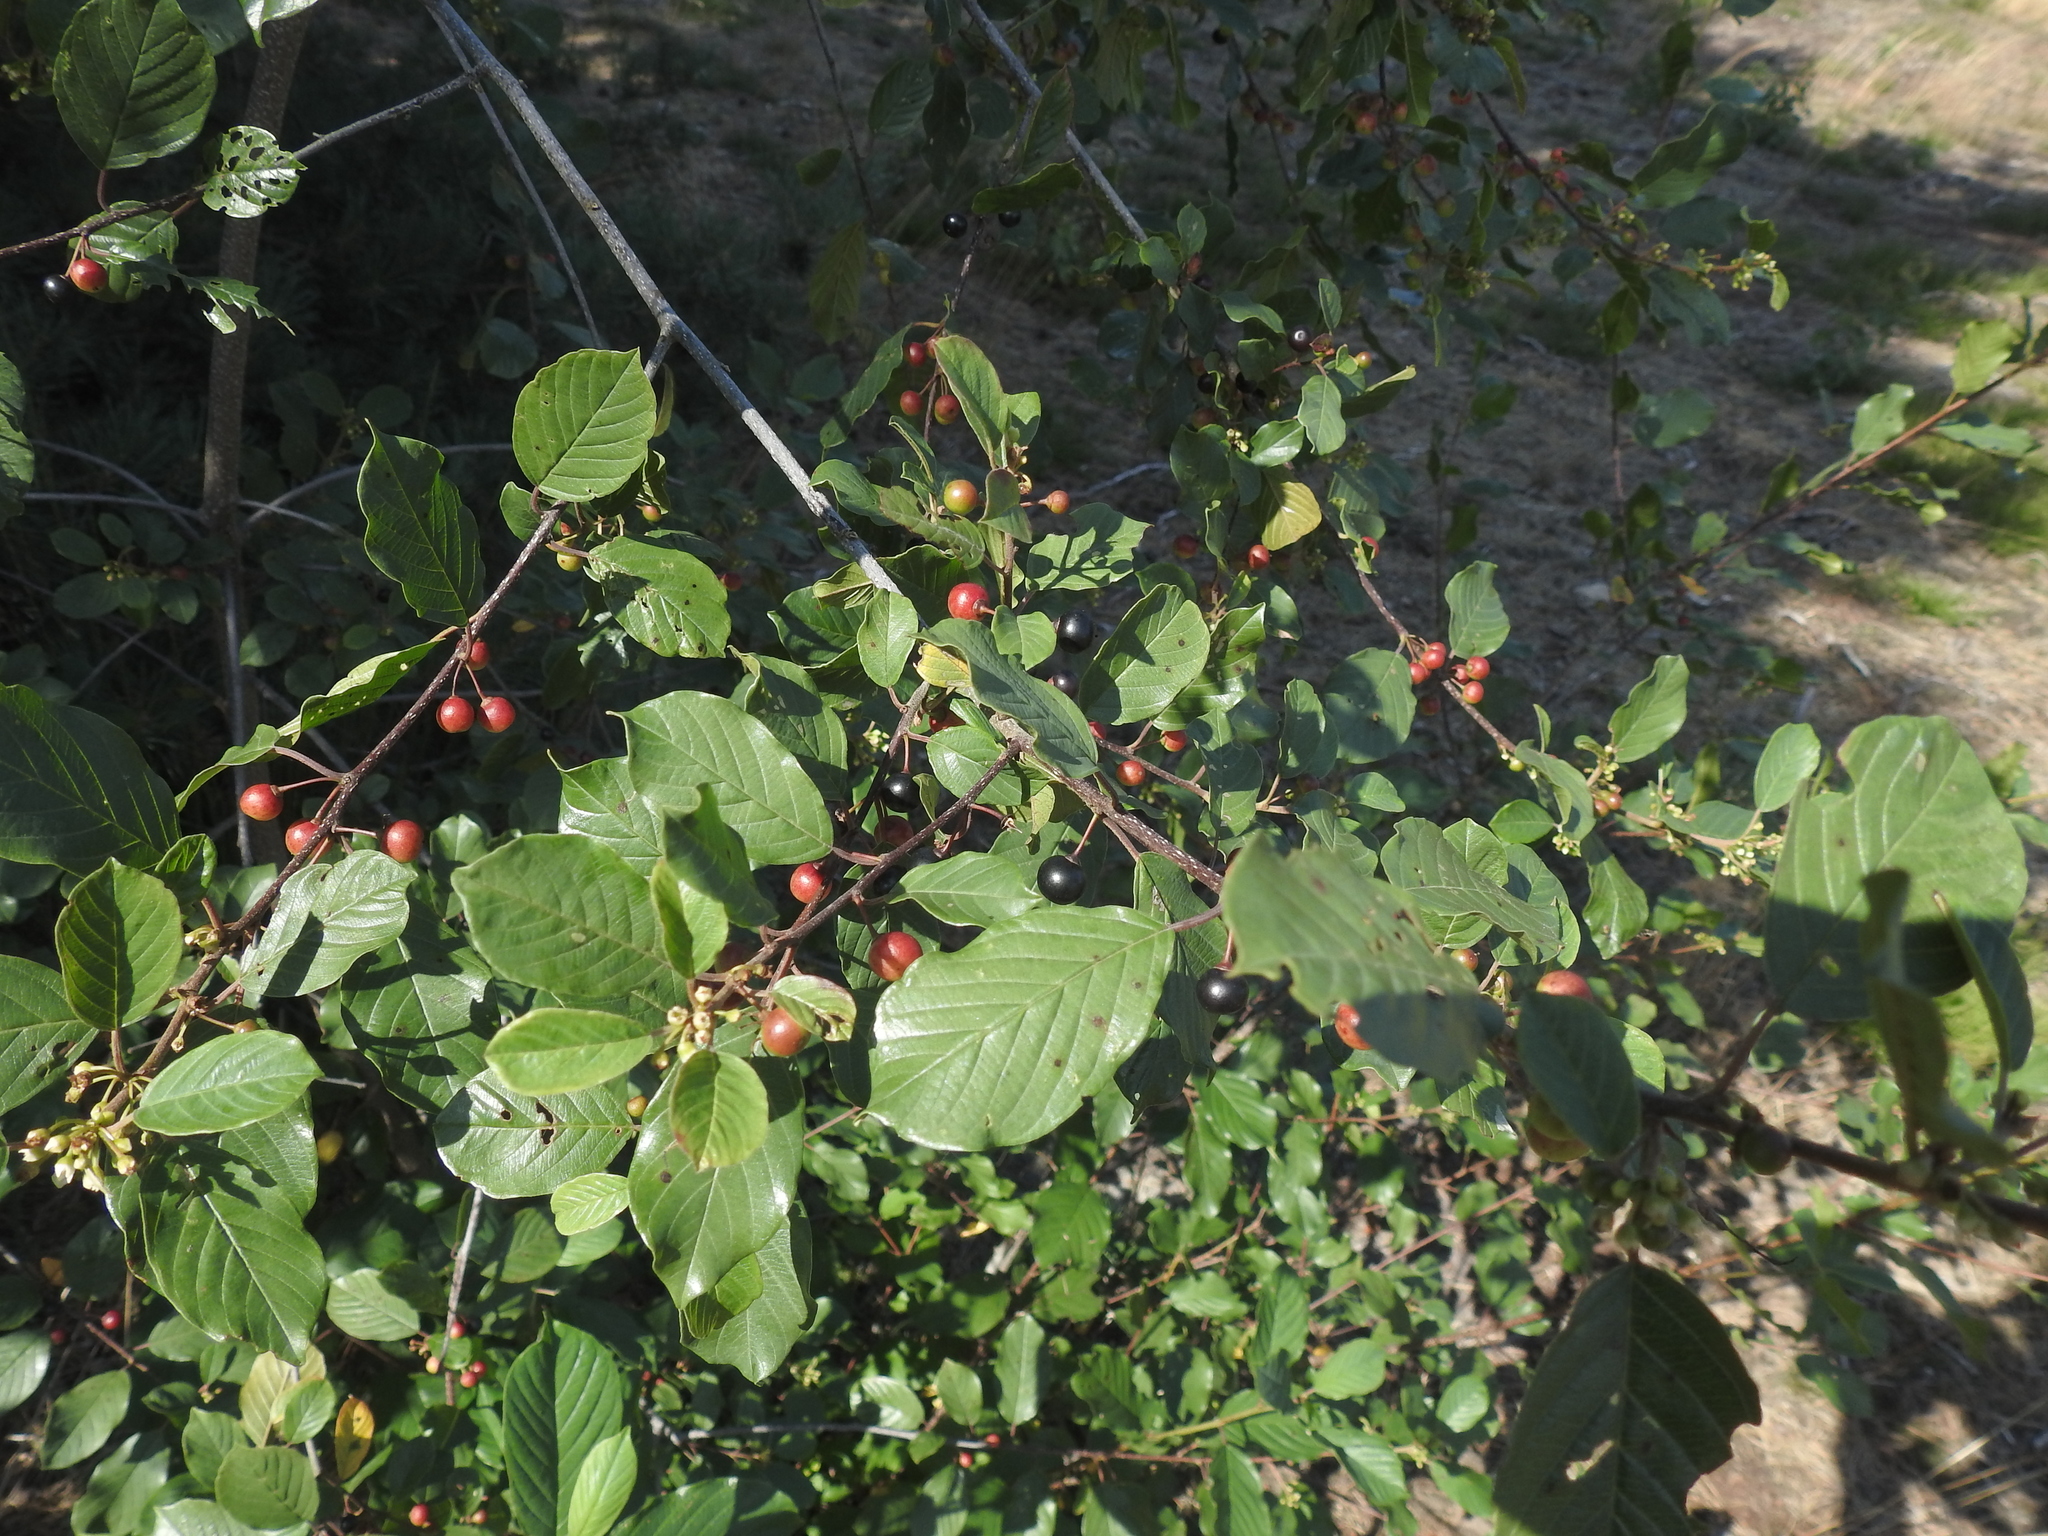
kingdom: Plantae
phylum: Tracheophyta
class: Magnoliopsida
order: Rosales
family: Rhamnaceae
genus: Frangula
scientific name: Frangula alnus
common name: Alder buckthorn
